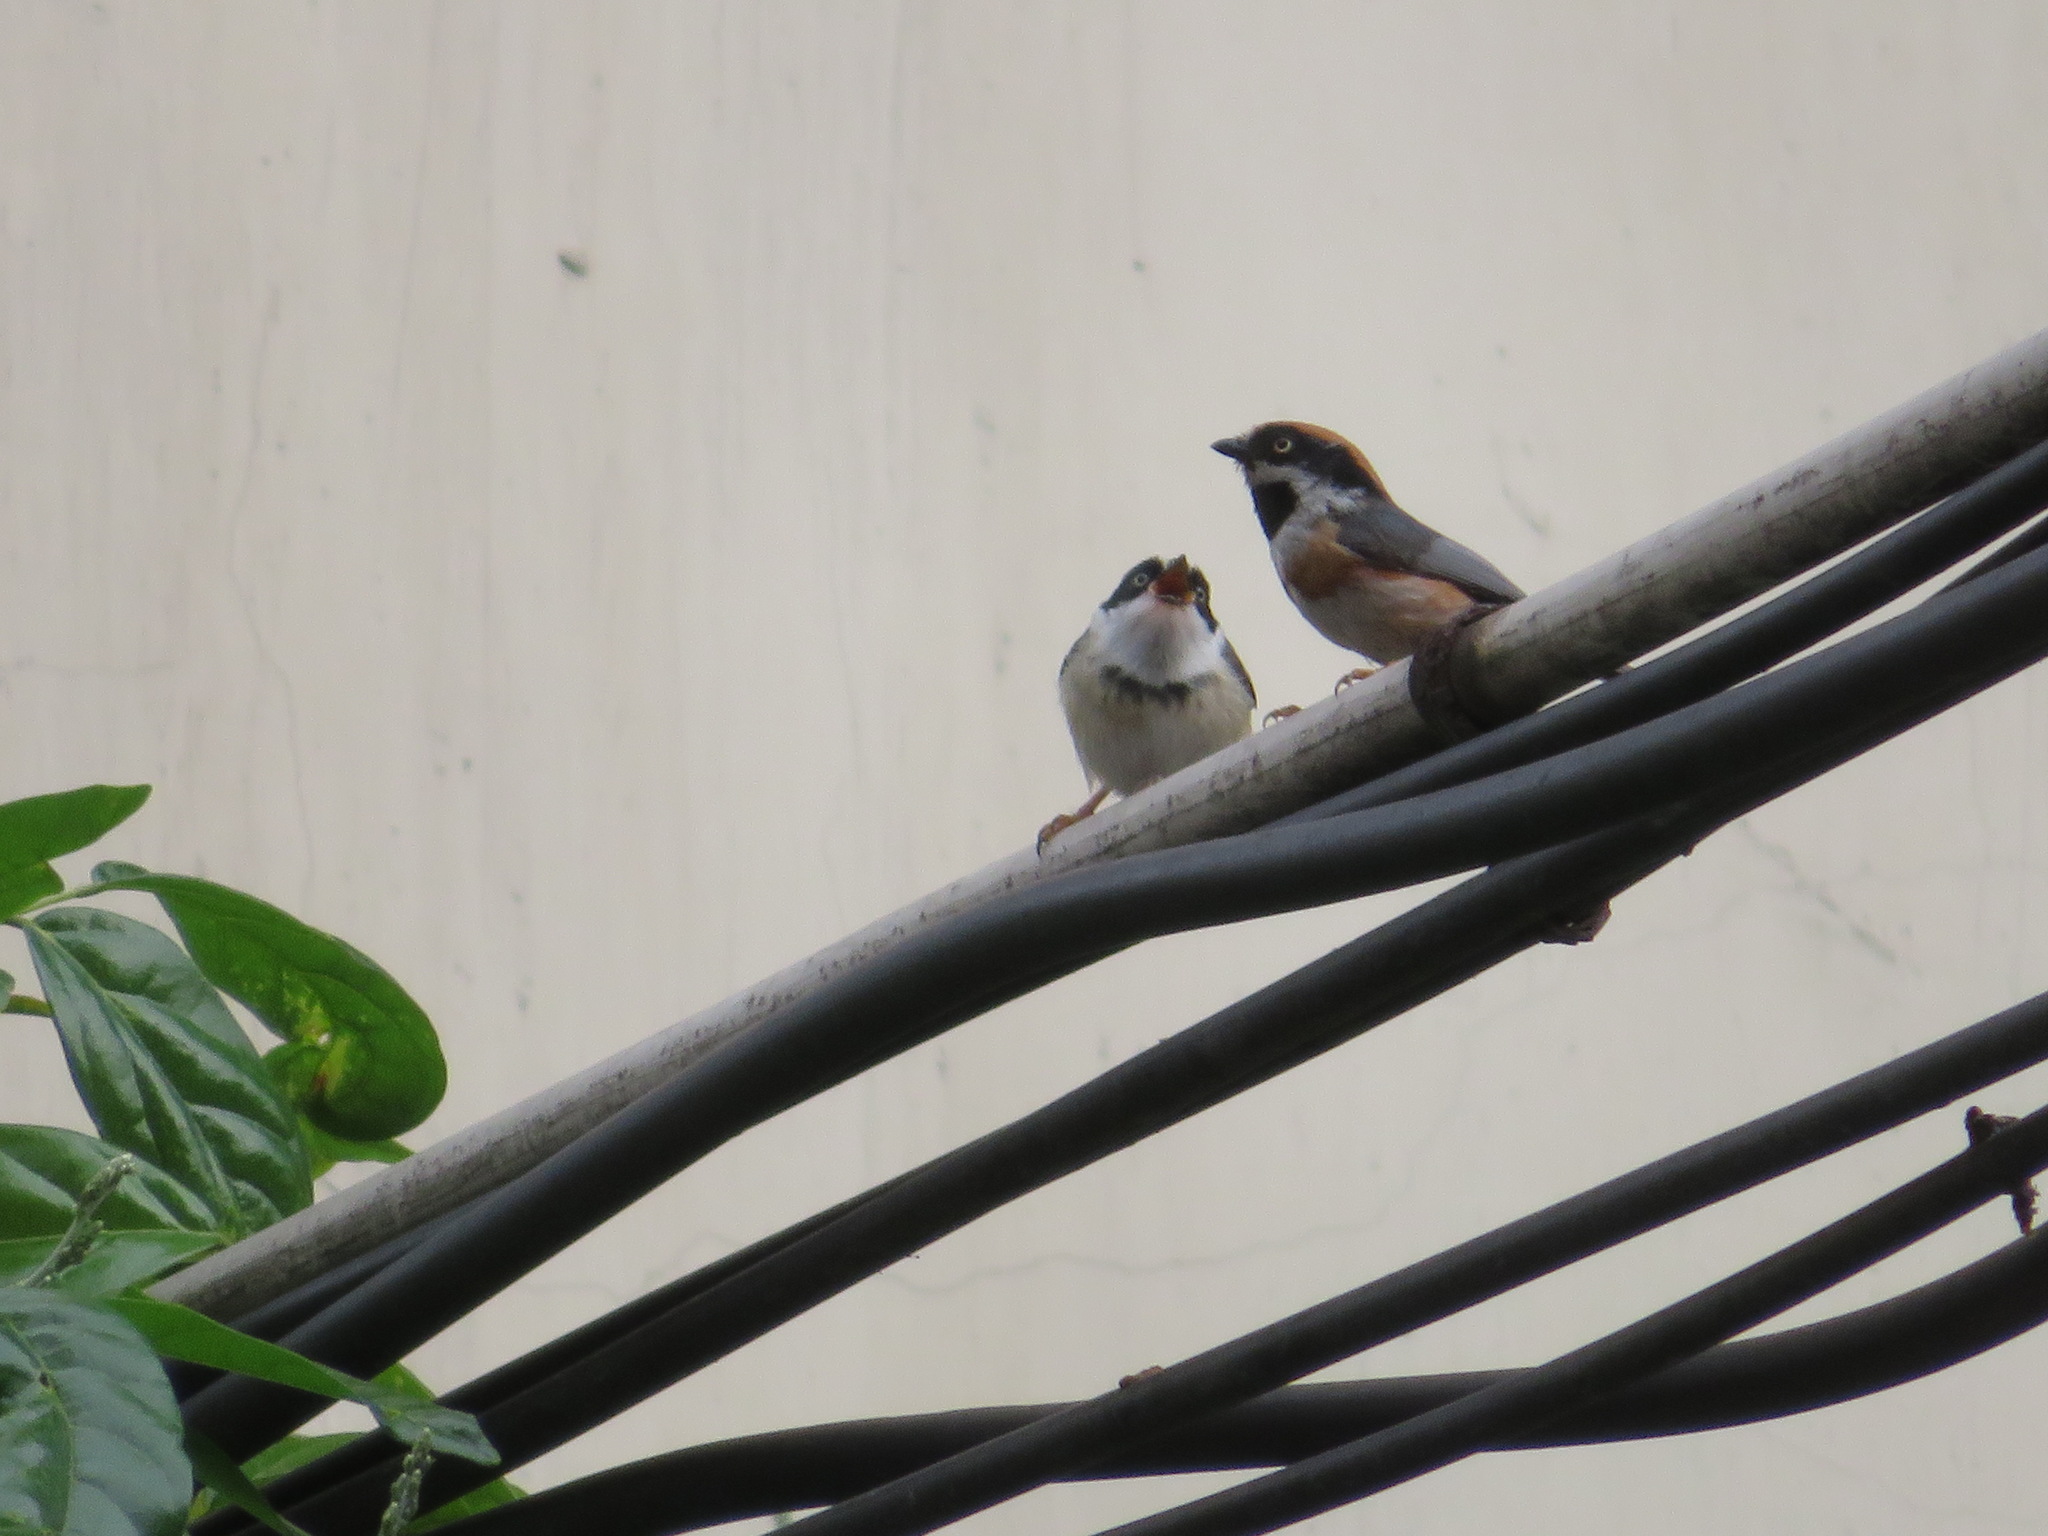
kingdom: Animalia
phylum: Chordata
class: Aves
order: Passeriformes
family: Aegithalidae
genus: Aegithalos
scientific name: Aegithalos concinnus
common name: Black-throated bushtit
